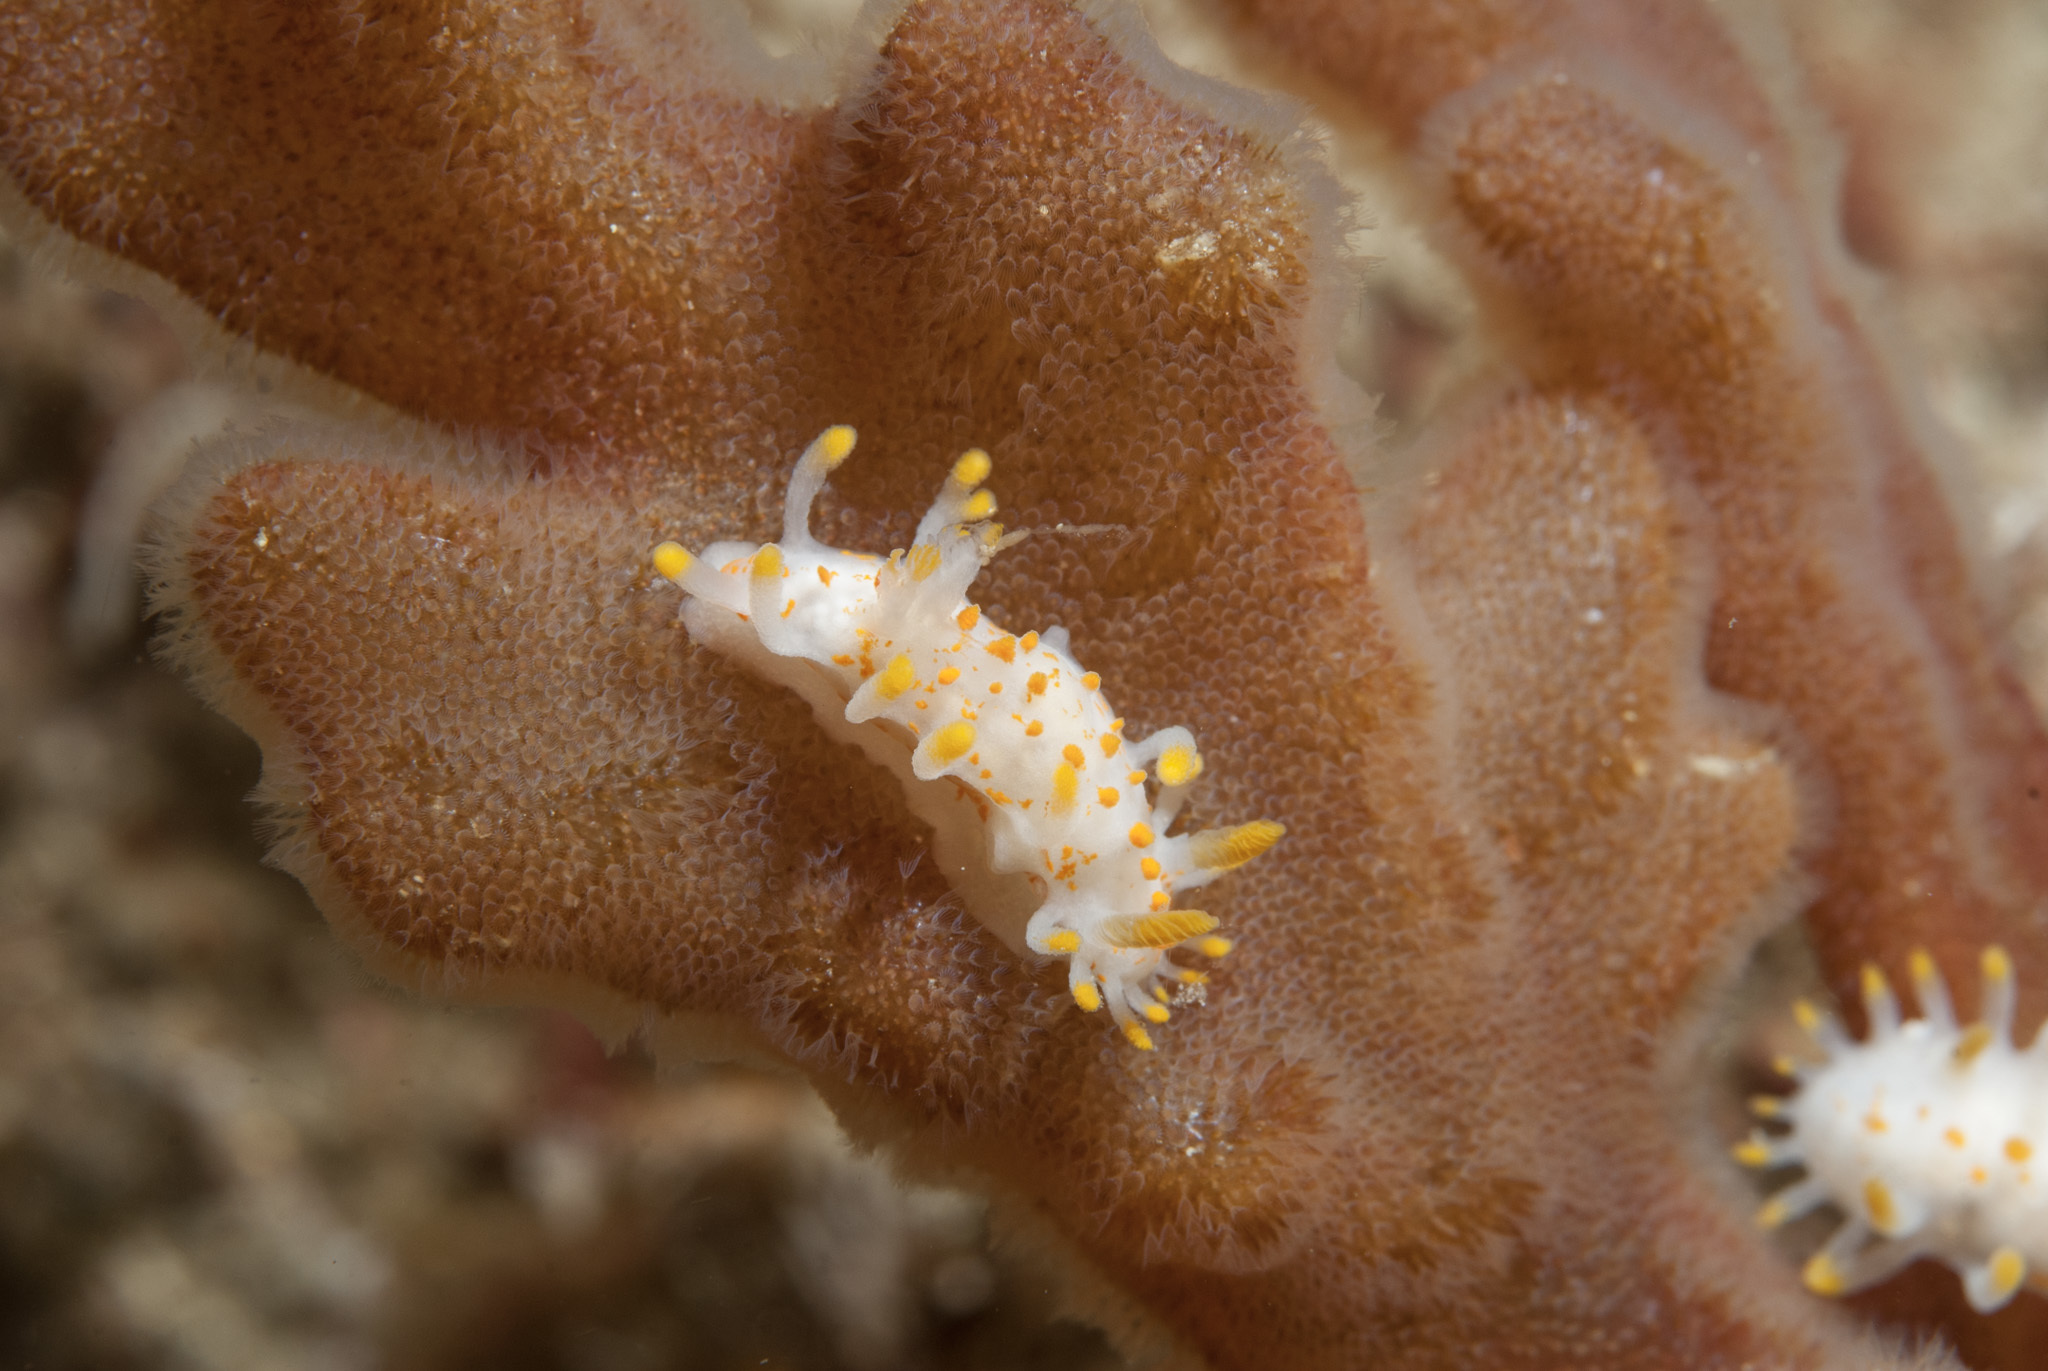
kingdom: Animalia
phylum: Mollusca
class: Gastropoda
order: Nudibranchia
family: Polyceridae
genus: Limacia
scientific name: Limacia clavigera
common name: Orange-clubbed sea slug
